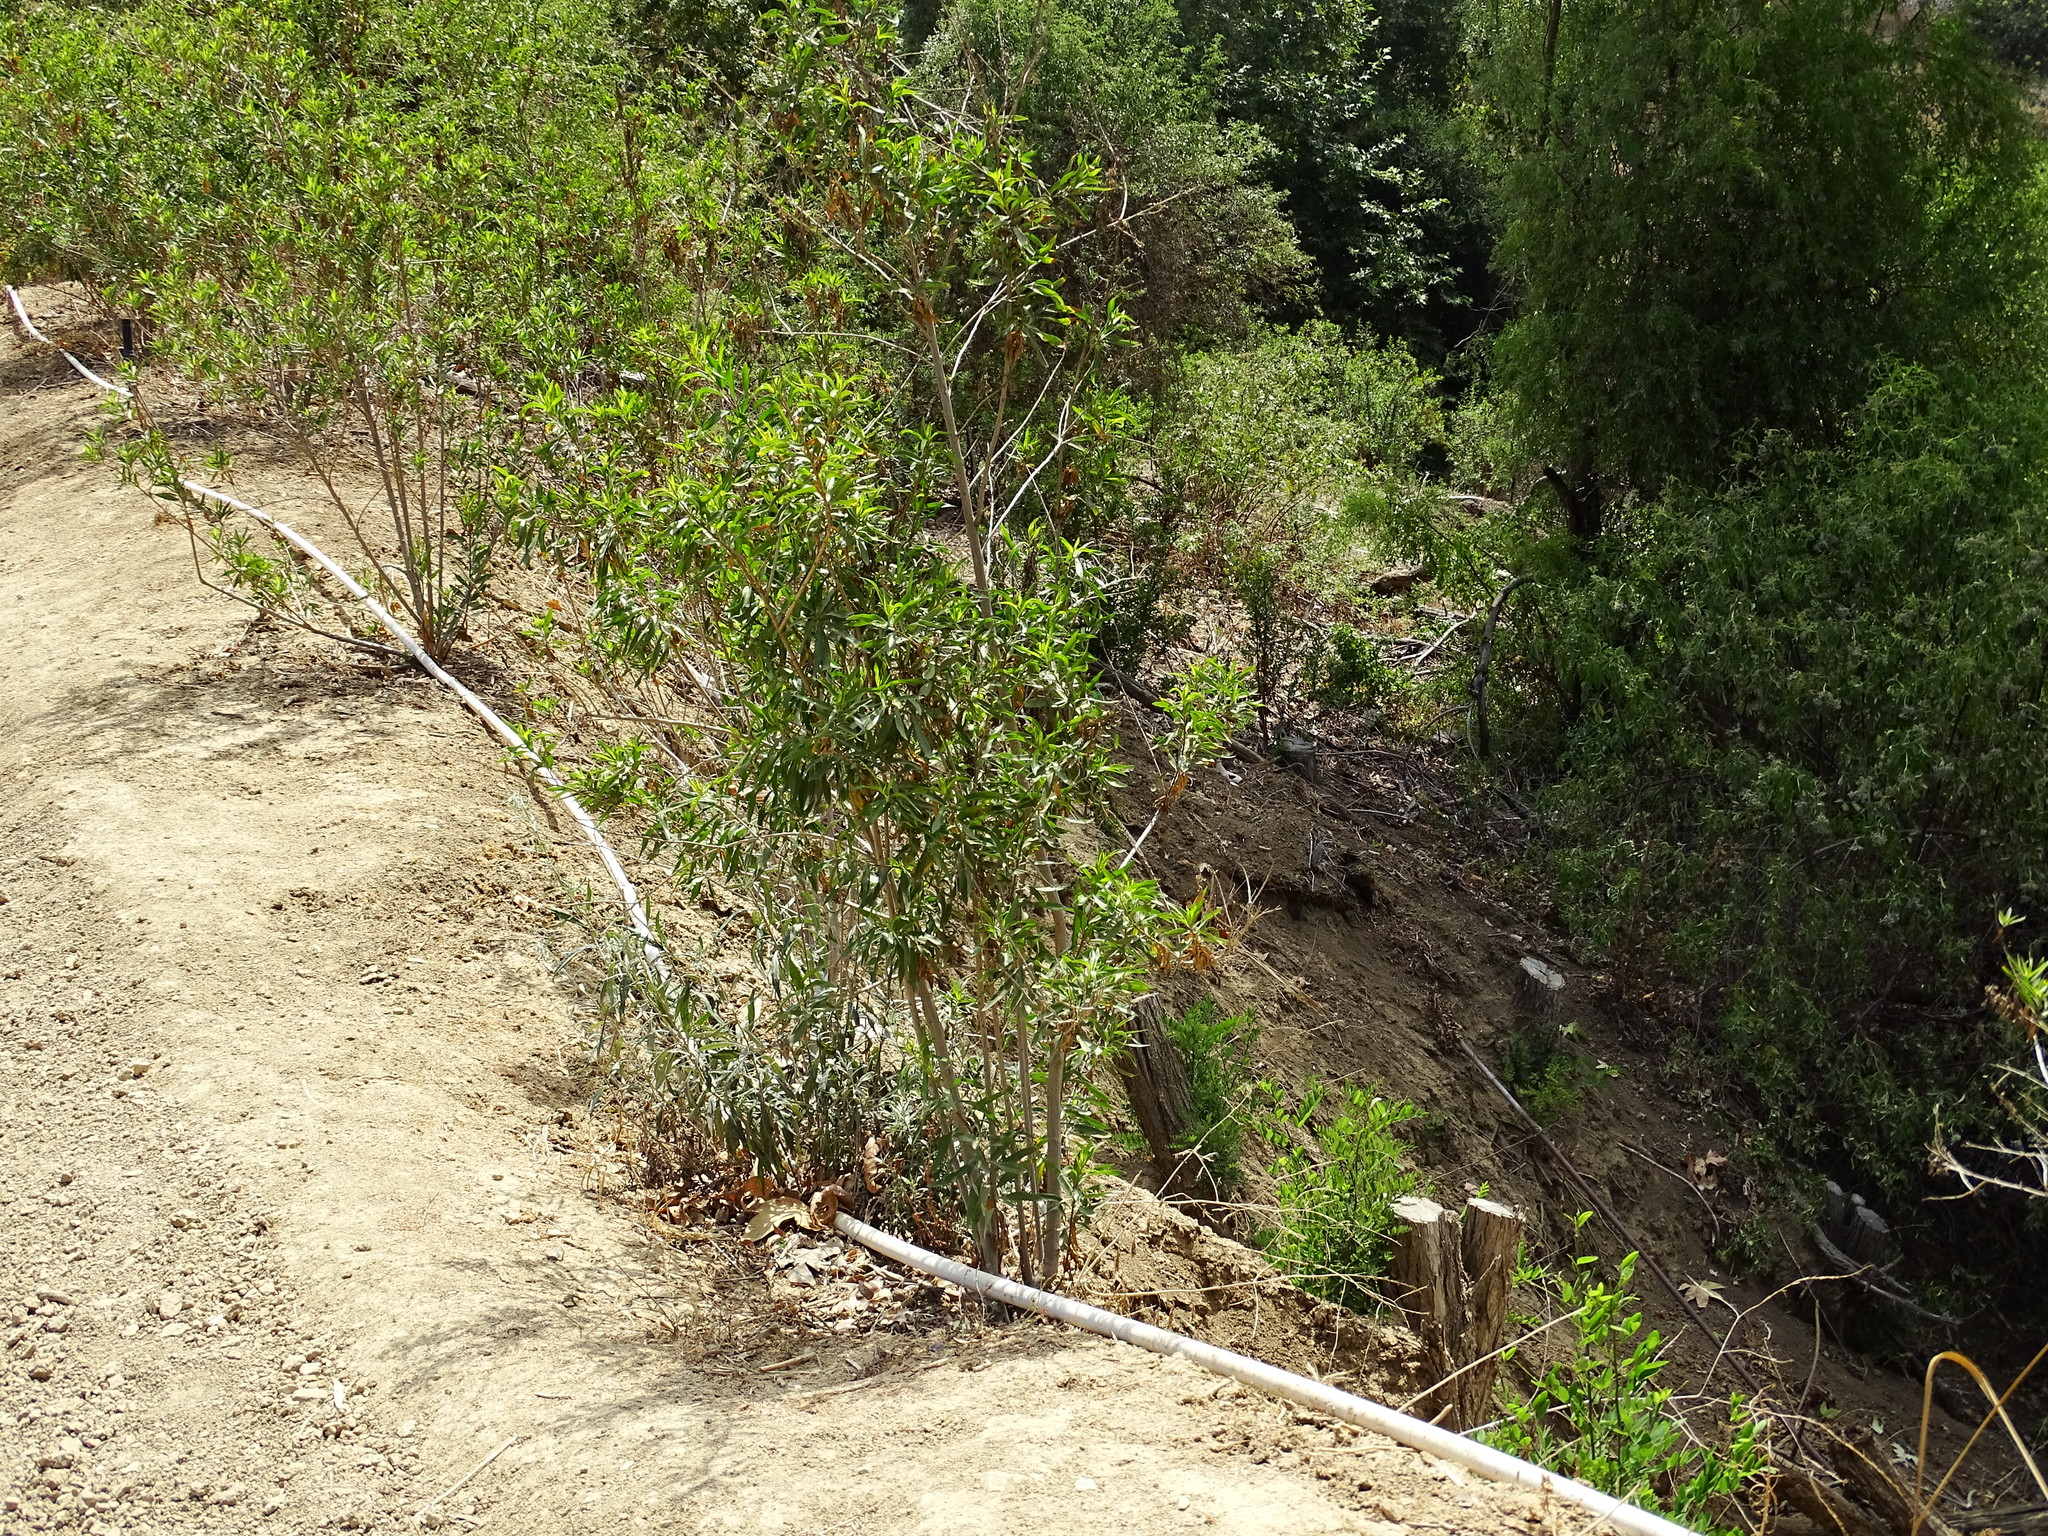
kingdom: Plantae
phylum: Tracheophyta
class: Magnoliopsida
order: Asterales
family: Asteraceae
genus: Baccharis
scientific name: Baccharis salicifolia
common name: Sticky baccharis
